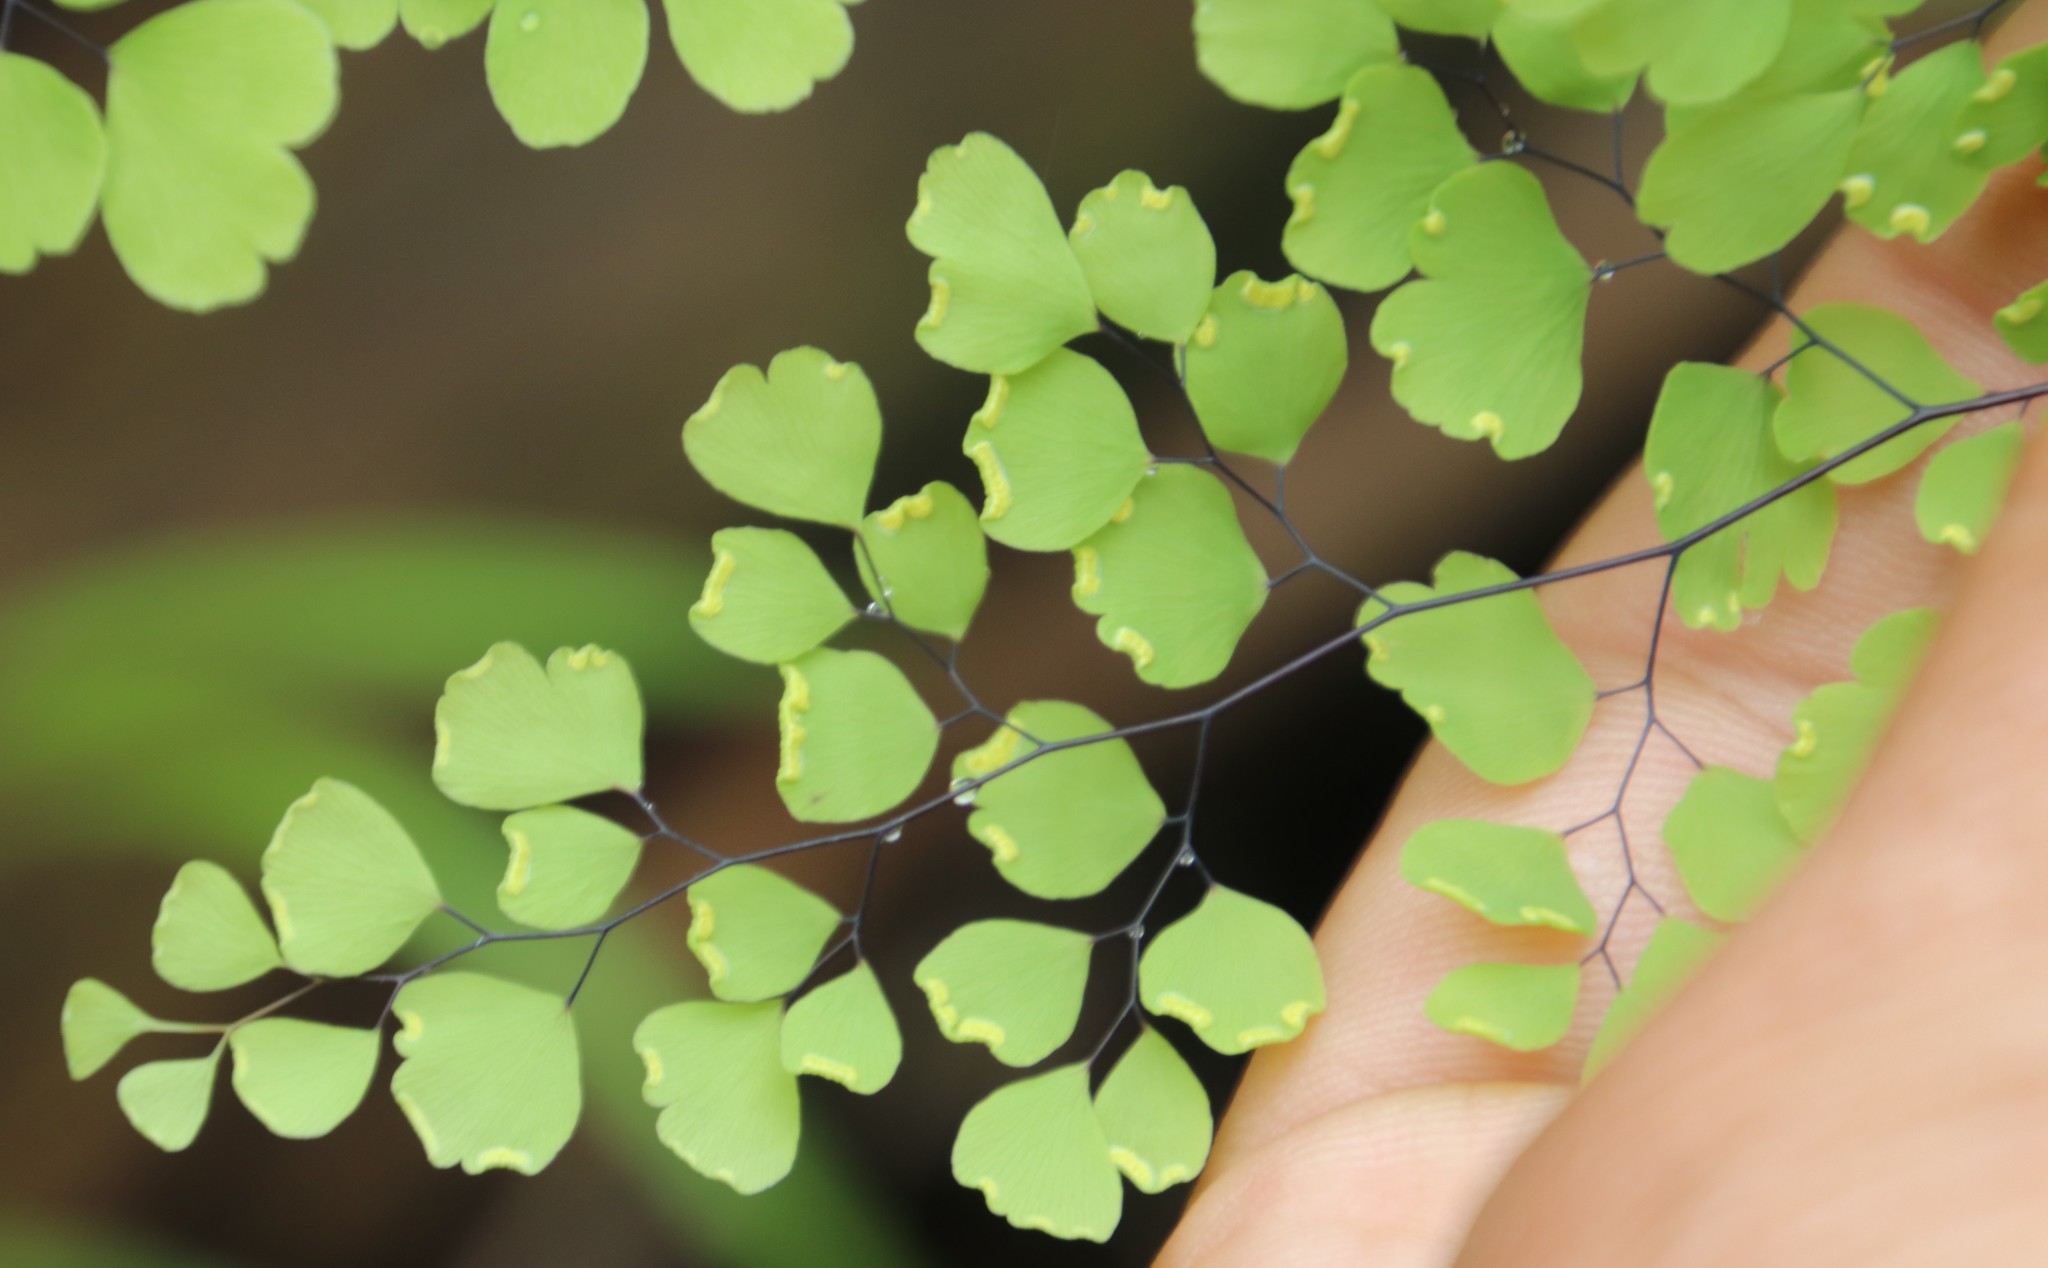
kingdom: Plantae
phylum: Tracheophyta
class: Polypodiopsida
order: Polypodiales
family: Pteridaceae
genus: Adiantum
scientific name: Adiantum capillus-veneris
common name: Maidenhair fern
